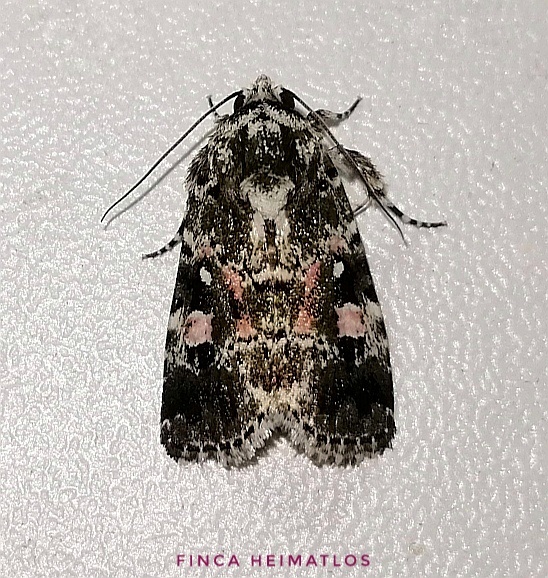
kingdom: Animalia
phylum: Arthropoda
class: Insecta
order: Lepidoptera
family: Noctuidae
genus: Elaphria
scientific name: Elaphria rubripicta
